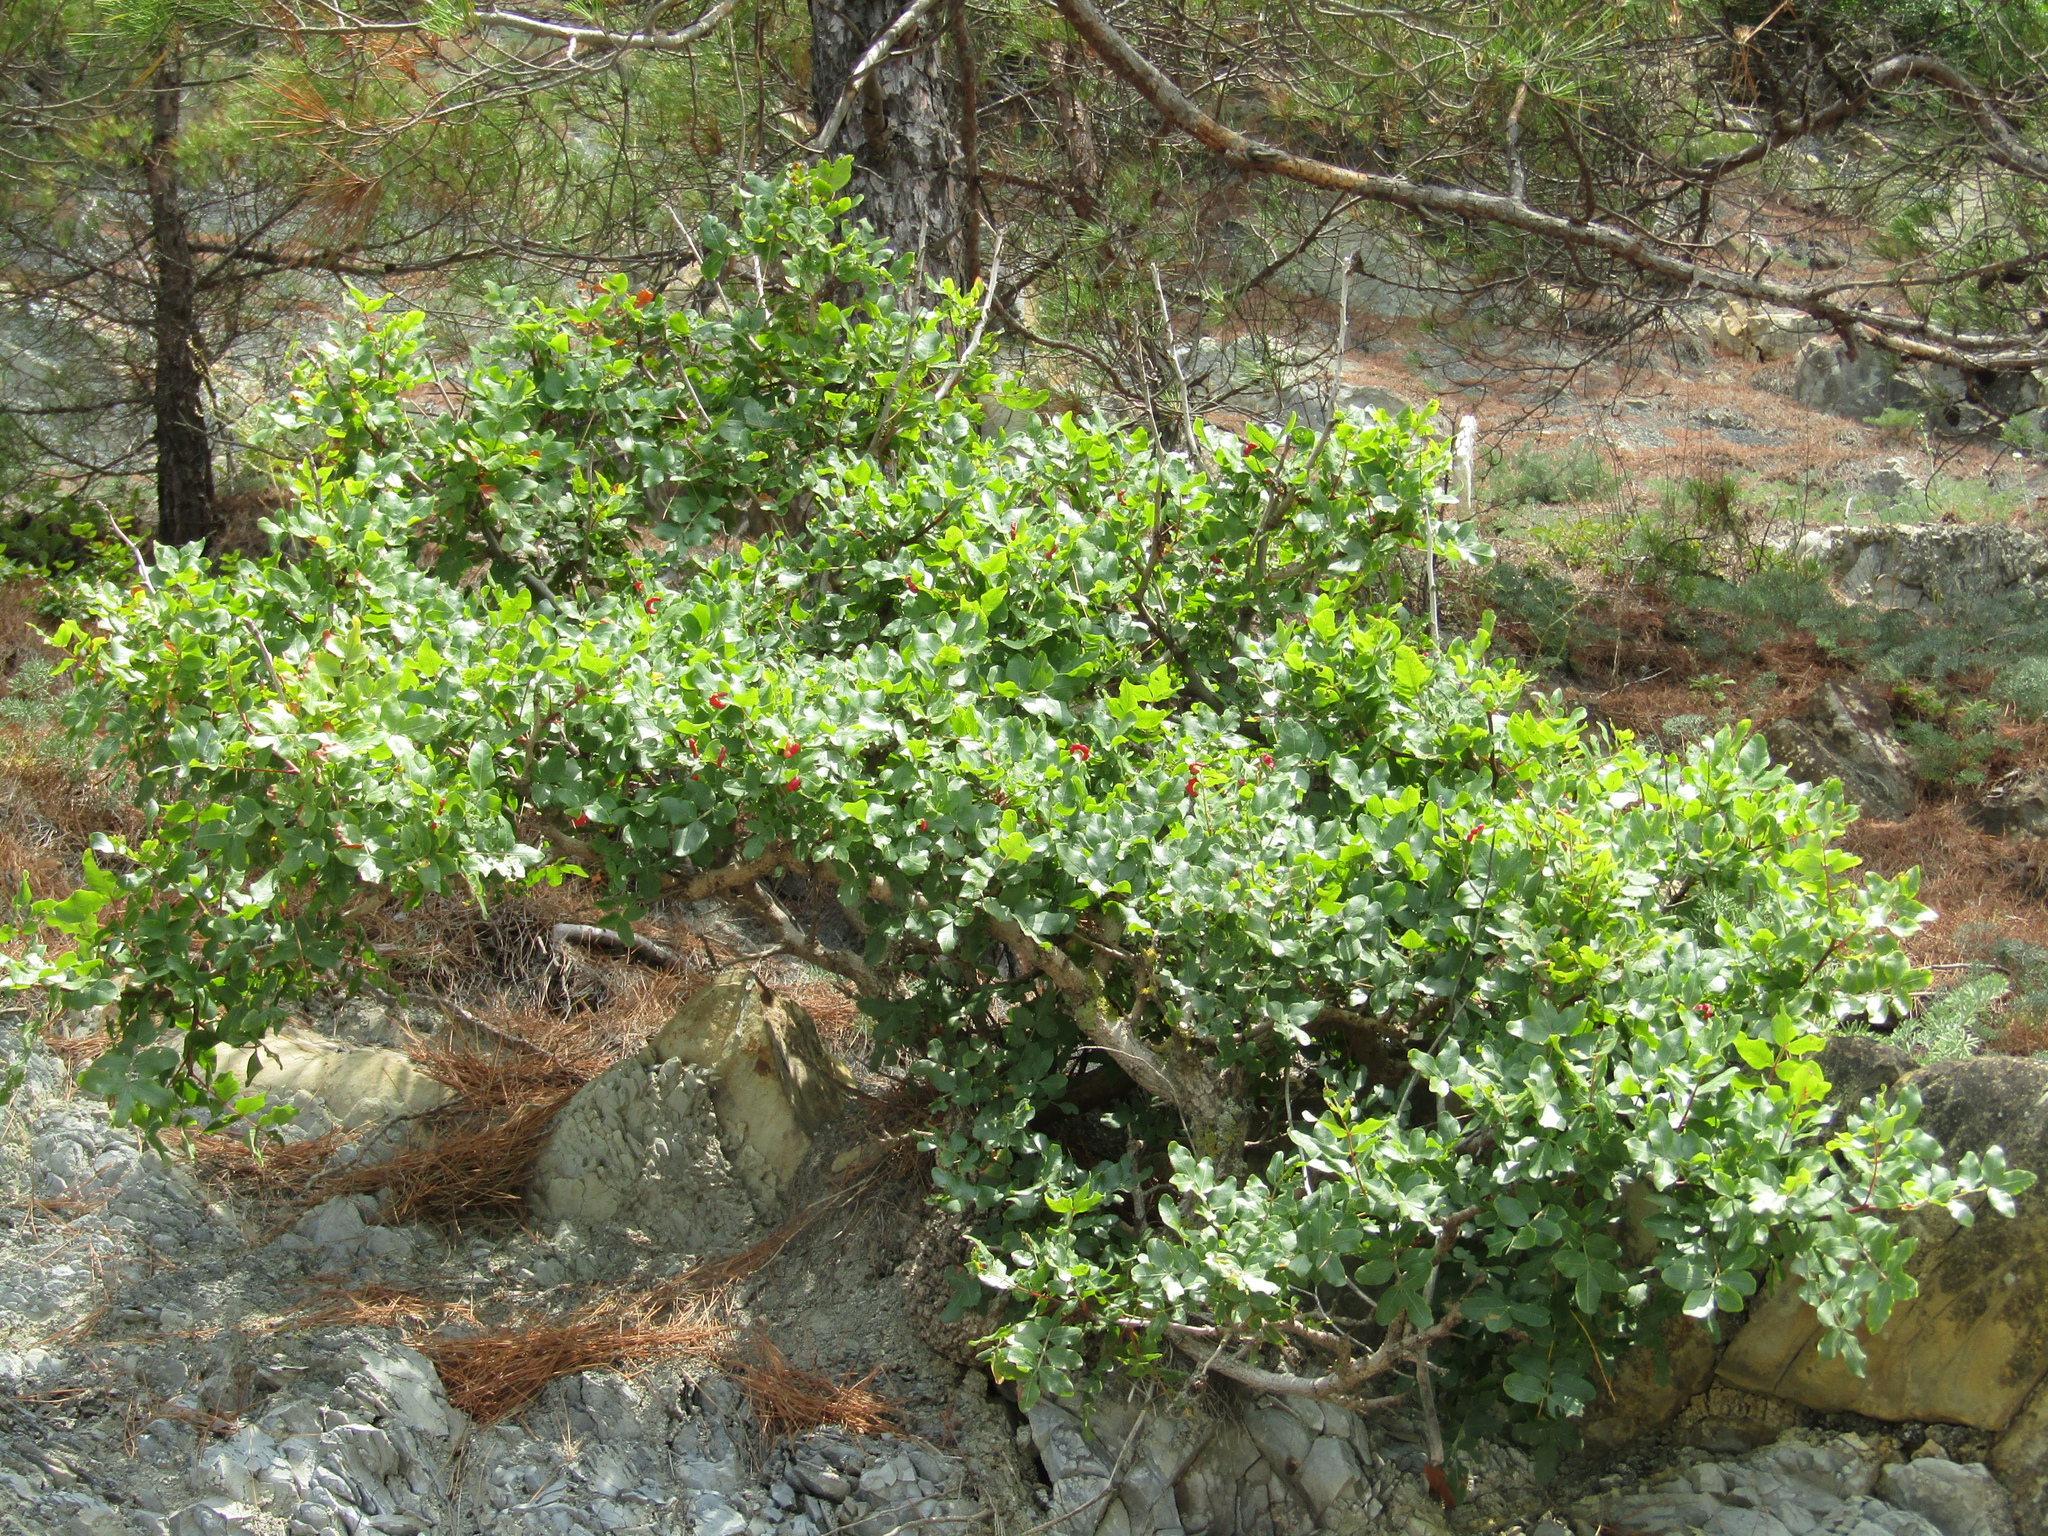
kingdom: Plantae
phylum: Tracheophyta
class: Magnoliopsida
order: Sapindales
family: Anacardiaceae
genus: Pistacia
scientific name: Pistacia atlantica
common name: Mt. atlas mastic tree
